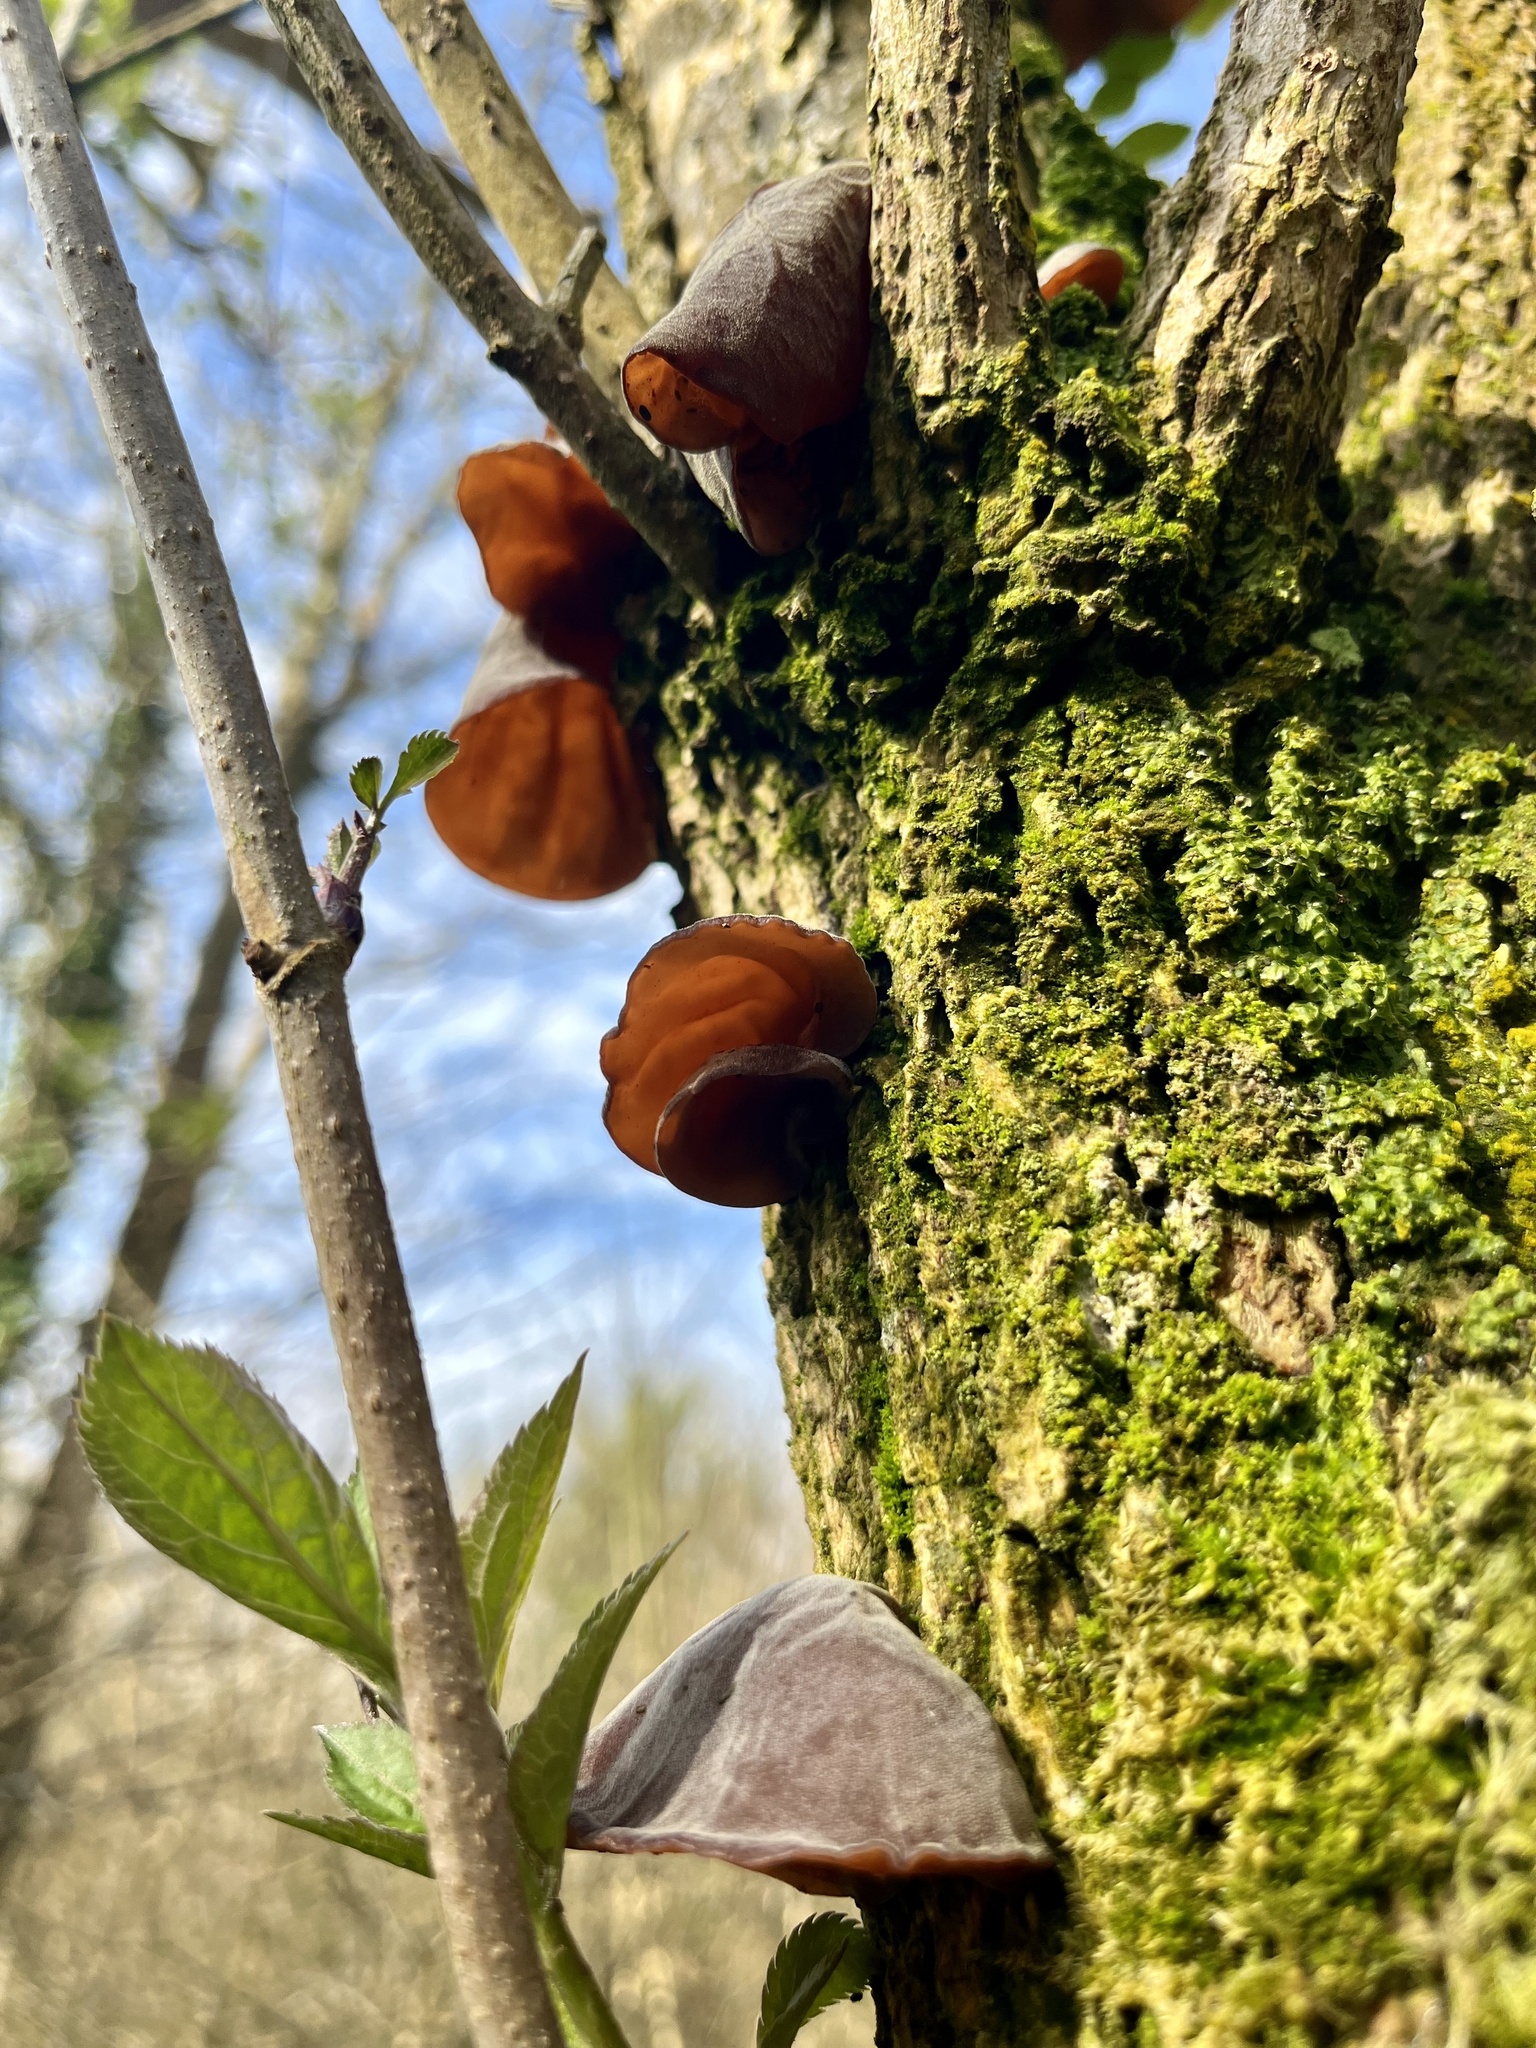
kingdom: Fungi
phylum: Basidiomycota
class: Agaricomycetes
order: Auriculariales
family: Auriculariaceae
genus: Auricularia
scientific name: Auricularia auricula-judae
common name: Jelly ear
